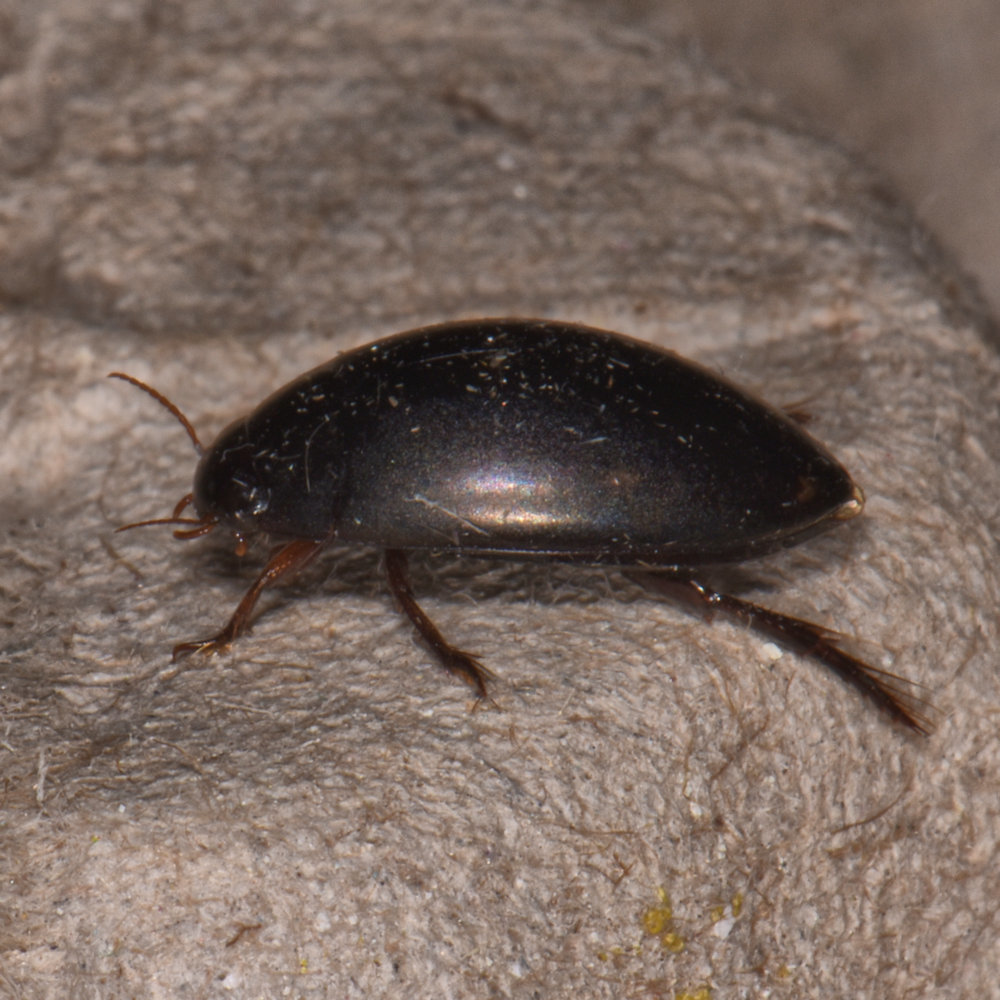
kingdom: Animalia
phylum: Arthropoda
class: Insecta
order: Coleoptera
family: Dytiscidae
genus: Ilybius
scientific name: Ilybius
